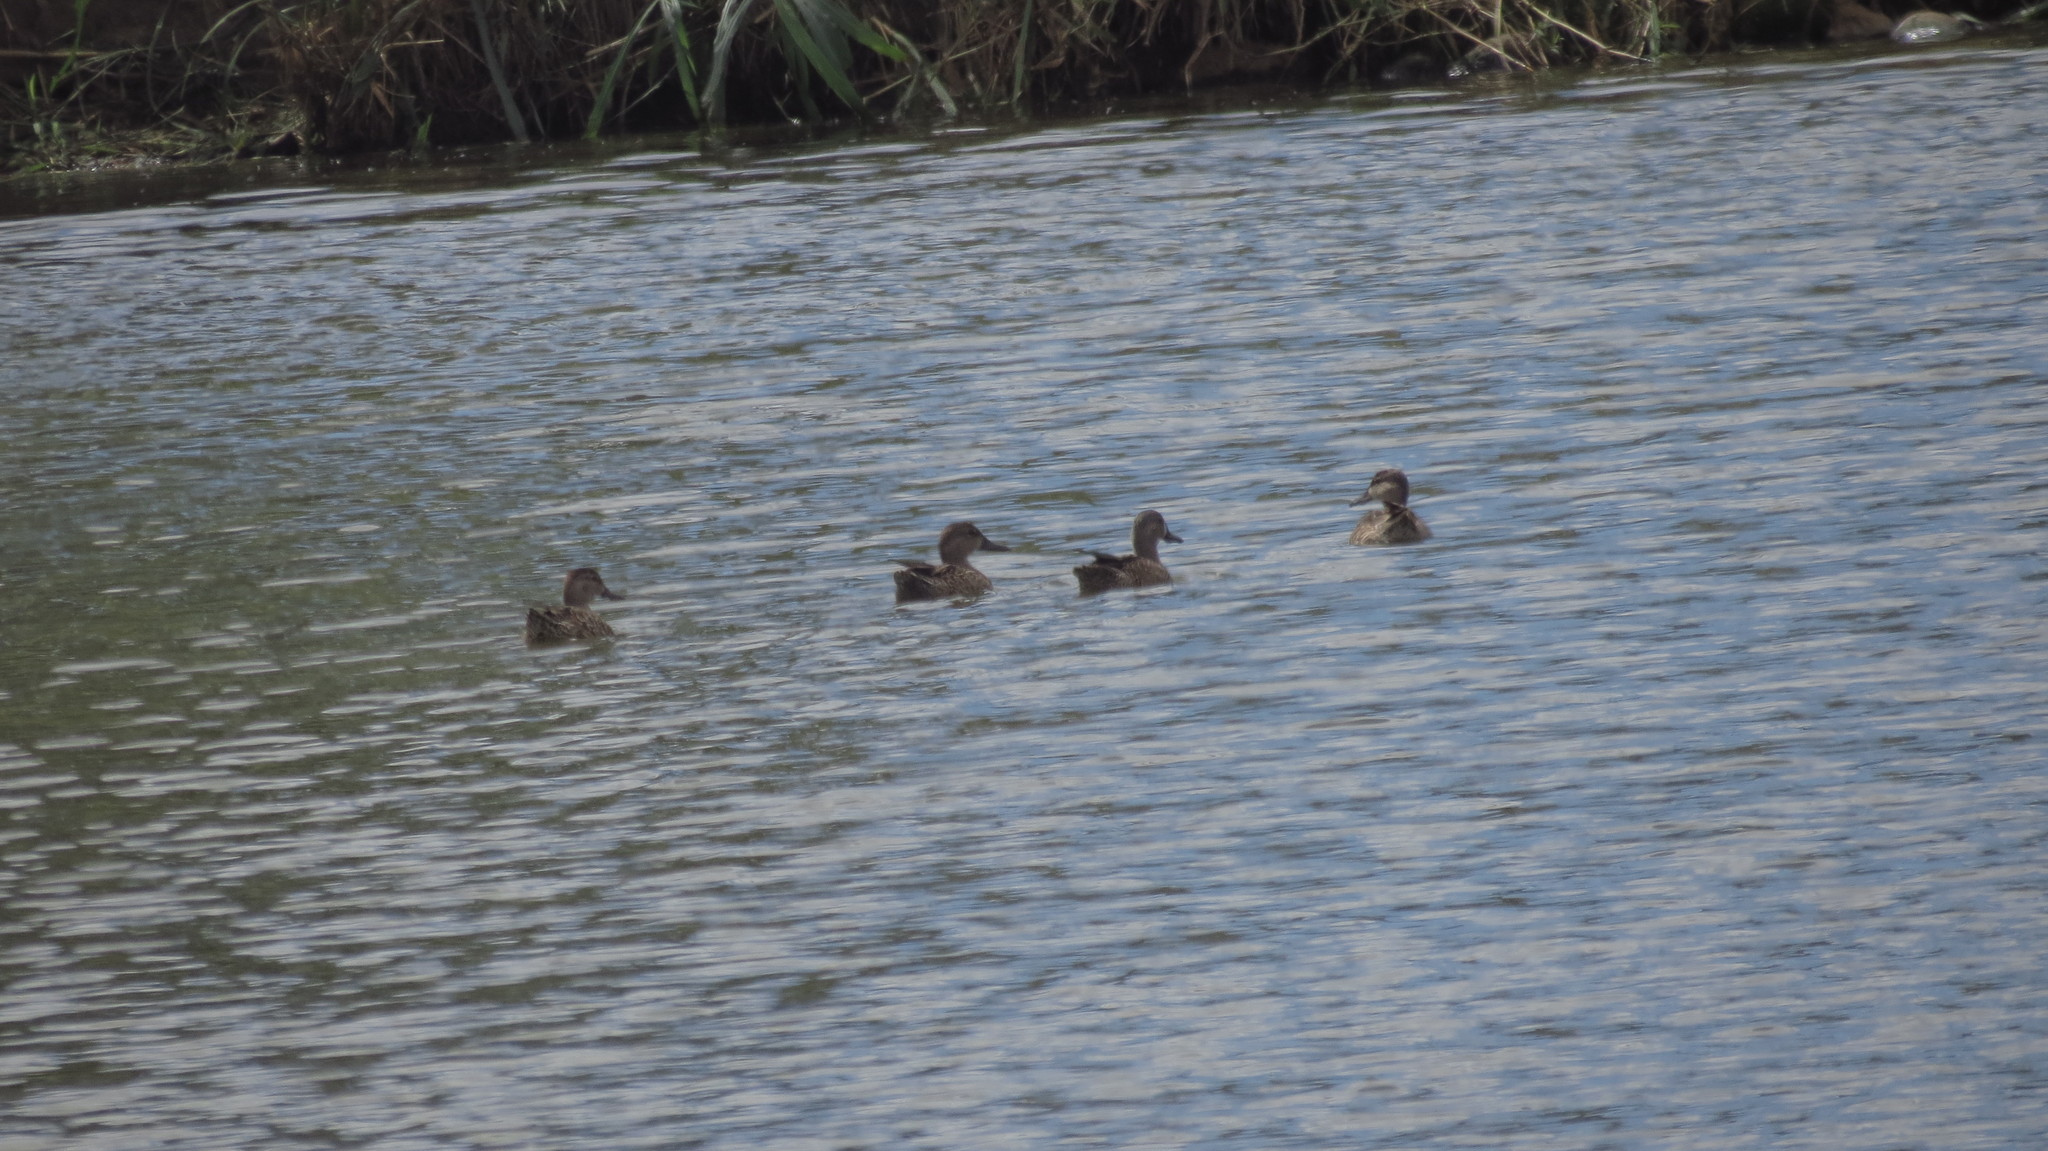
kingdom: Animalia
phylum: Chordata
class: Aves
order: Anseriformes
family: Anatidae
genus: Spatula
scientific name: Spatula discors
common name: Blue-winged teal
